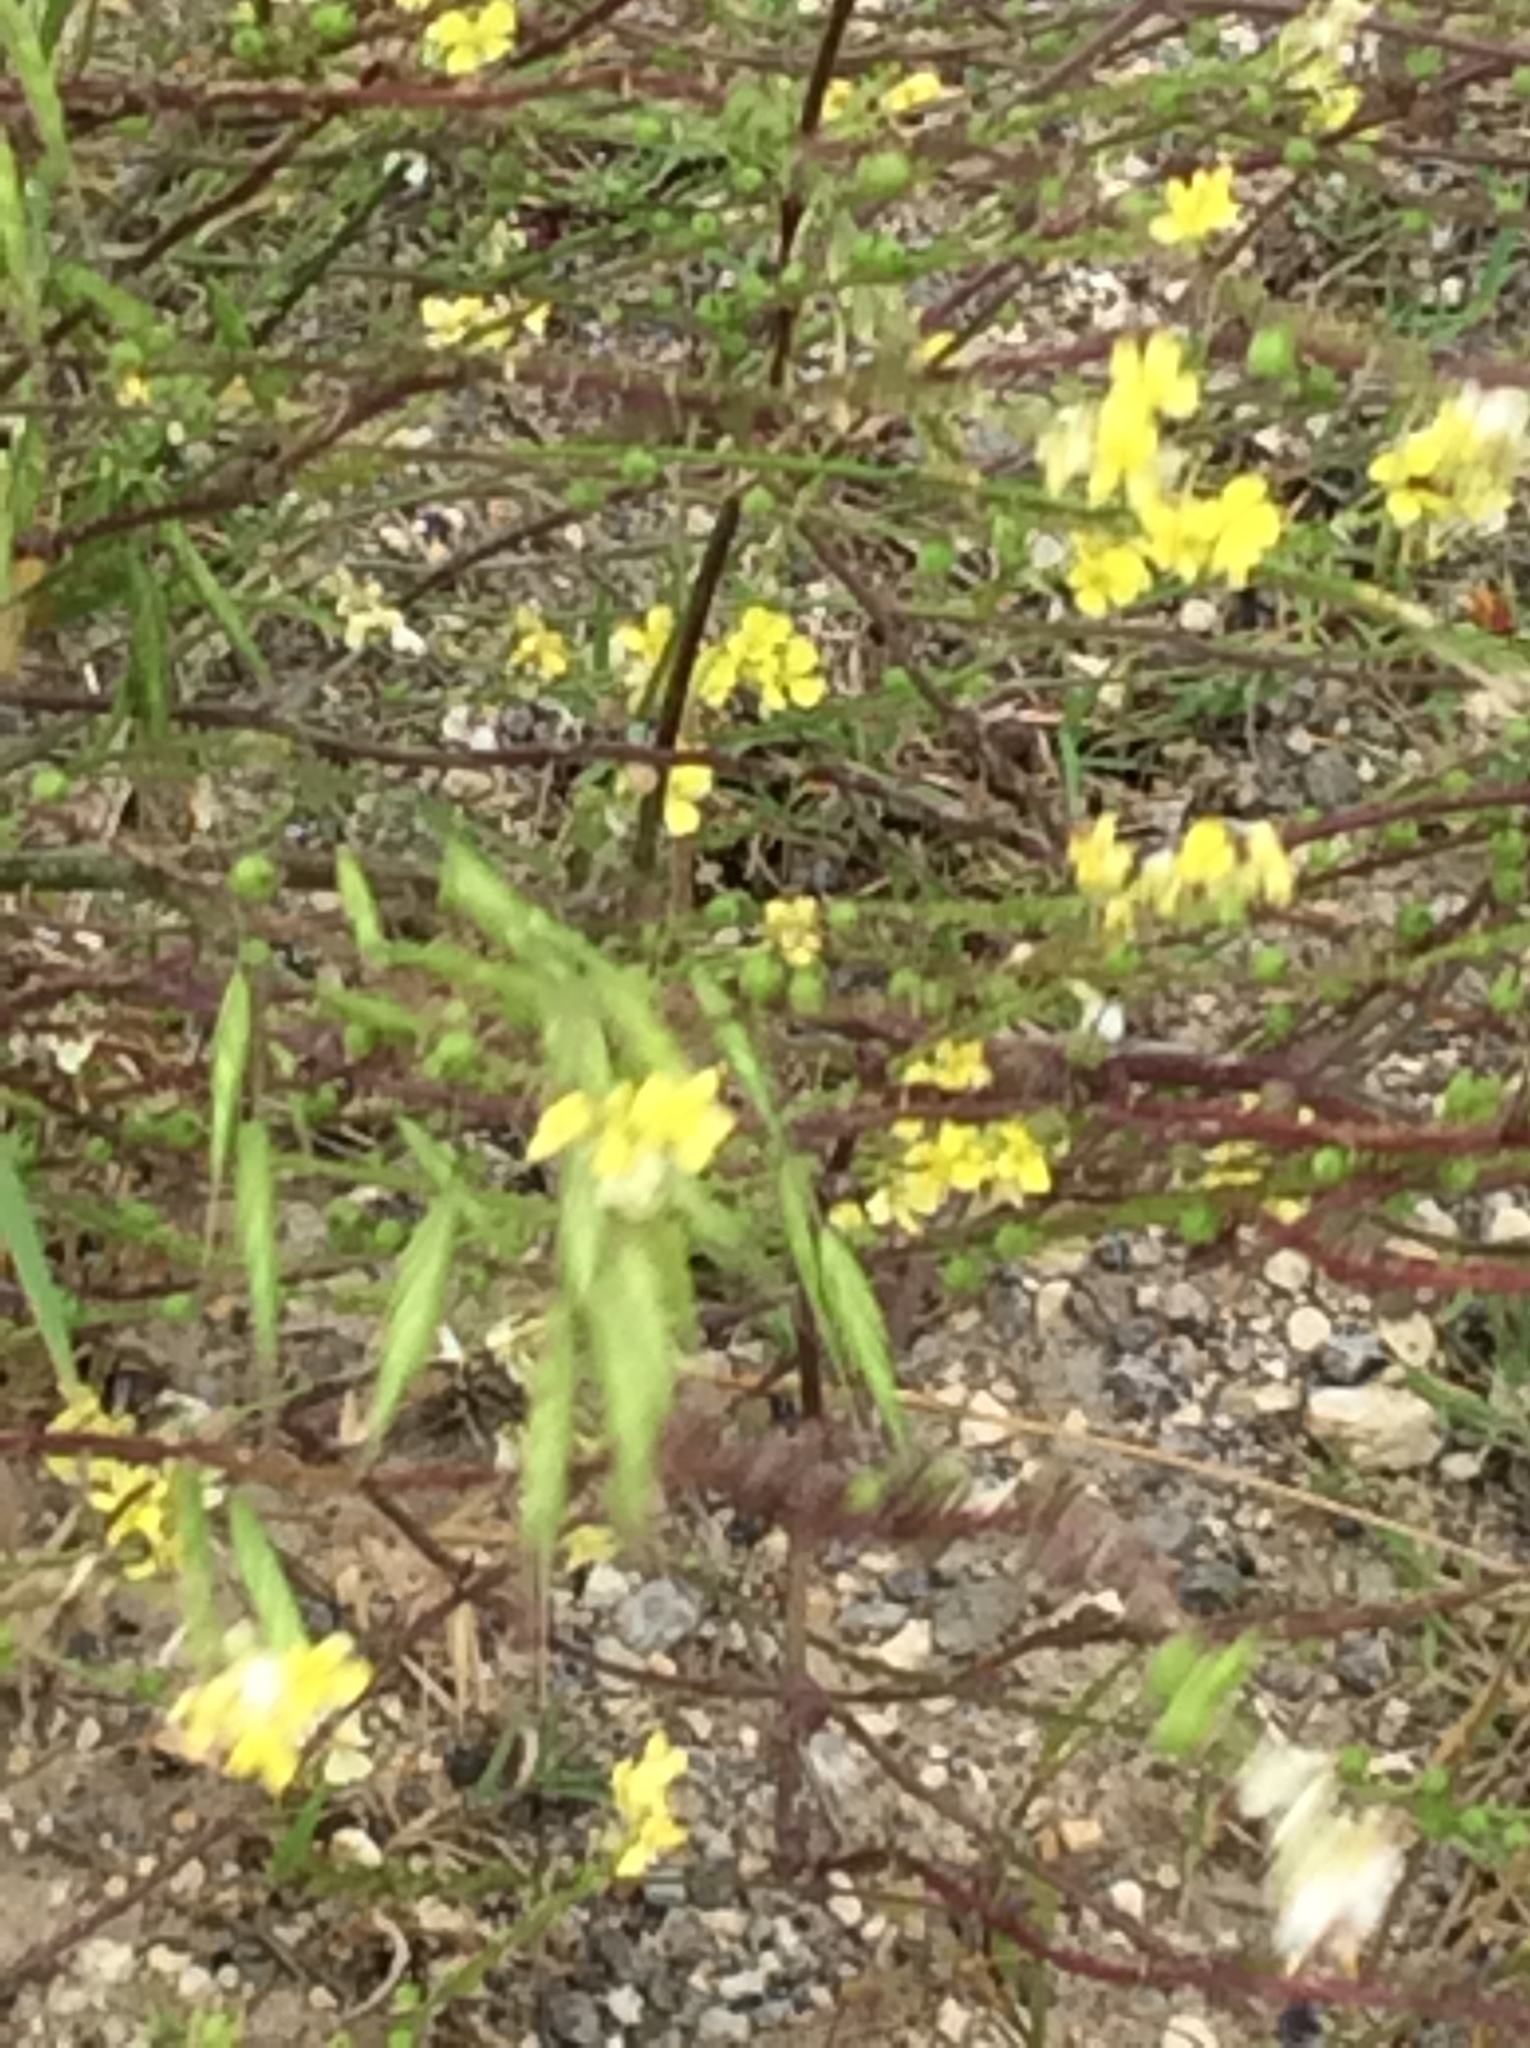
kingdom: Plantae
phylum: Tracheophyta
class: Magnoliopsida
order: Brassicales
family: Brassicaceae
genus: Rapistrum
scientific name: Rapistrum rugosum
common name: Annual bastardcabbage
